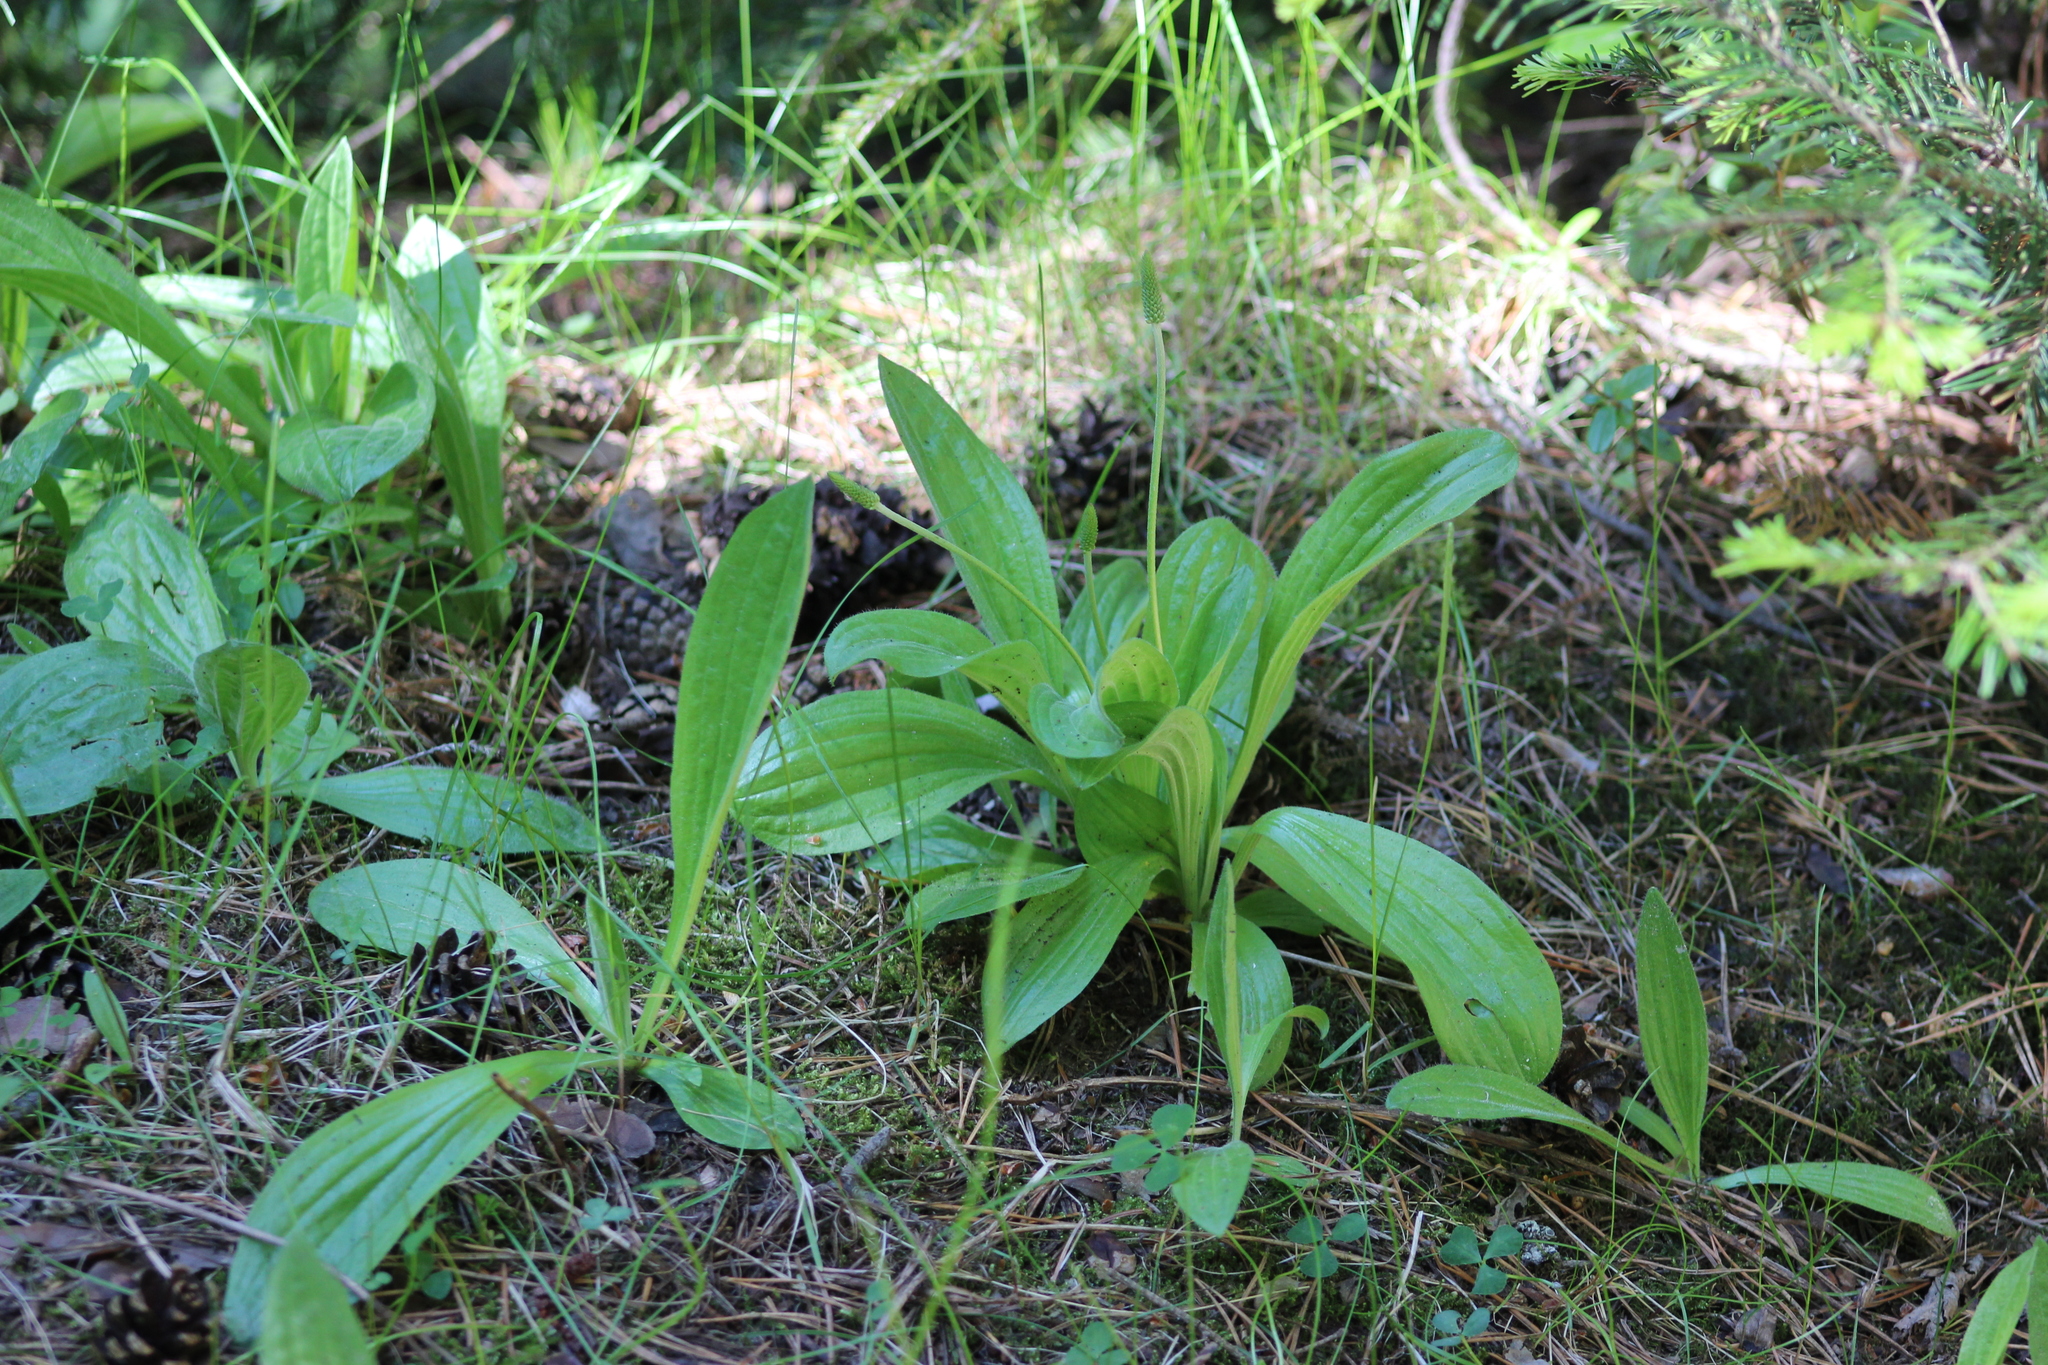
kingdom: Plantae
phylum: Tracheophyta
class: Magnoliopsida
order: Lamiales
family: Plantaginaceae
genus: Plantago
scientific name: Plantago media
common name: Hoary plantain
